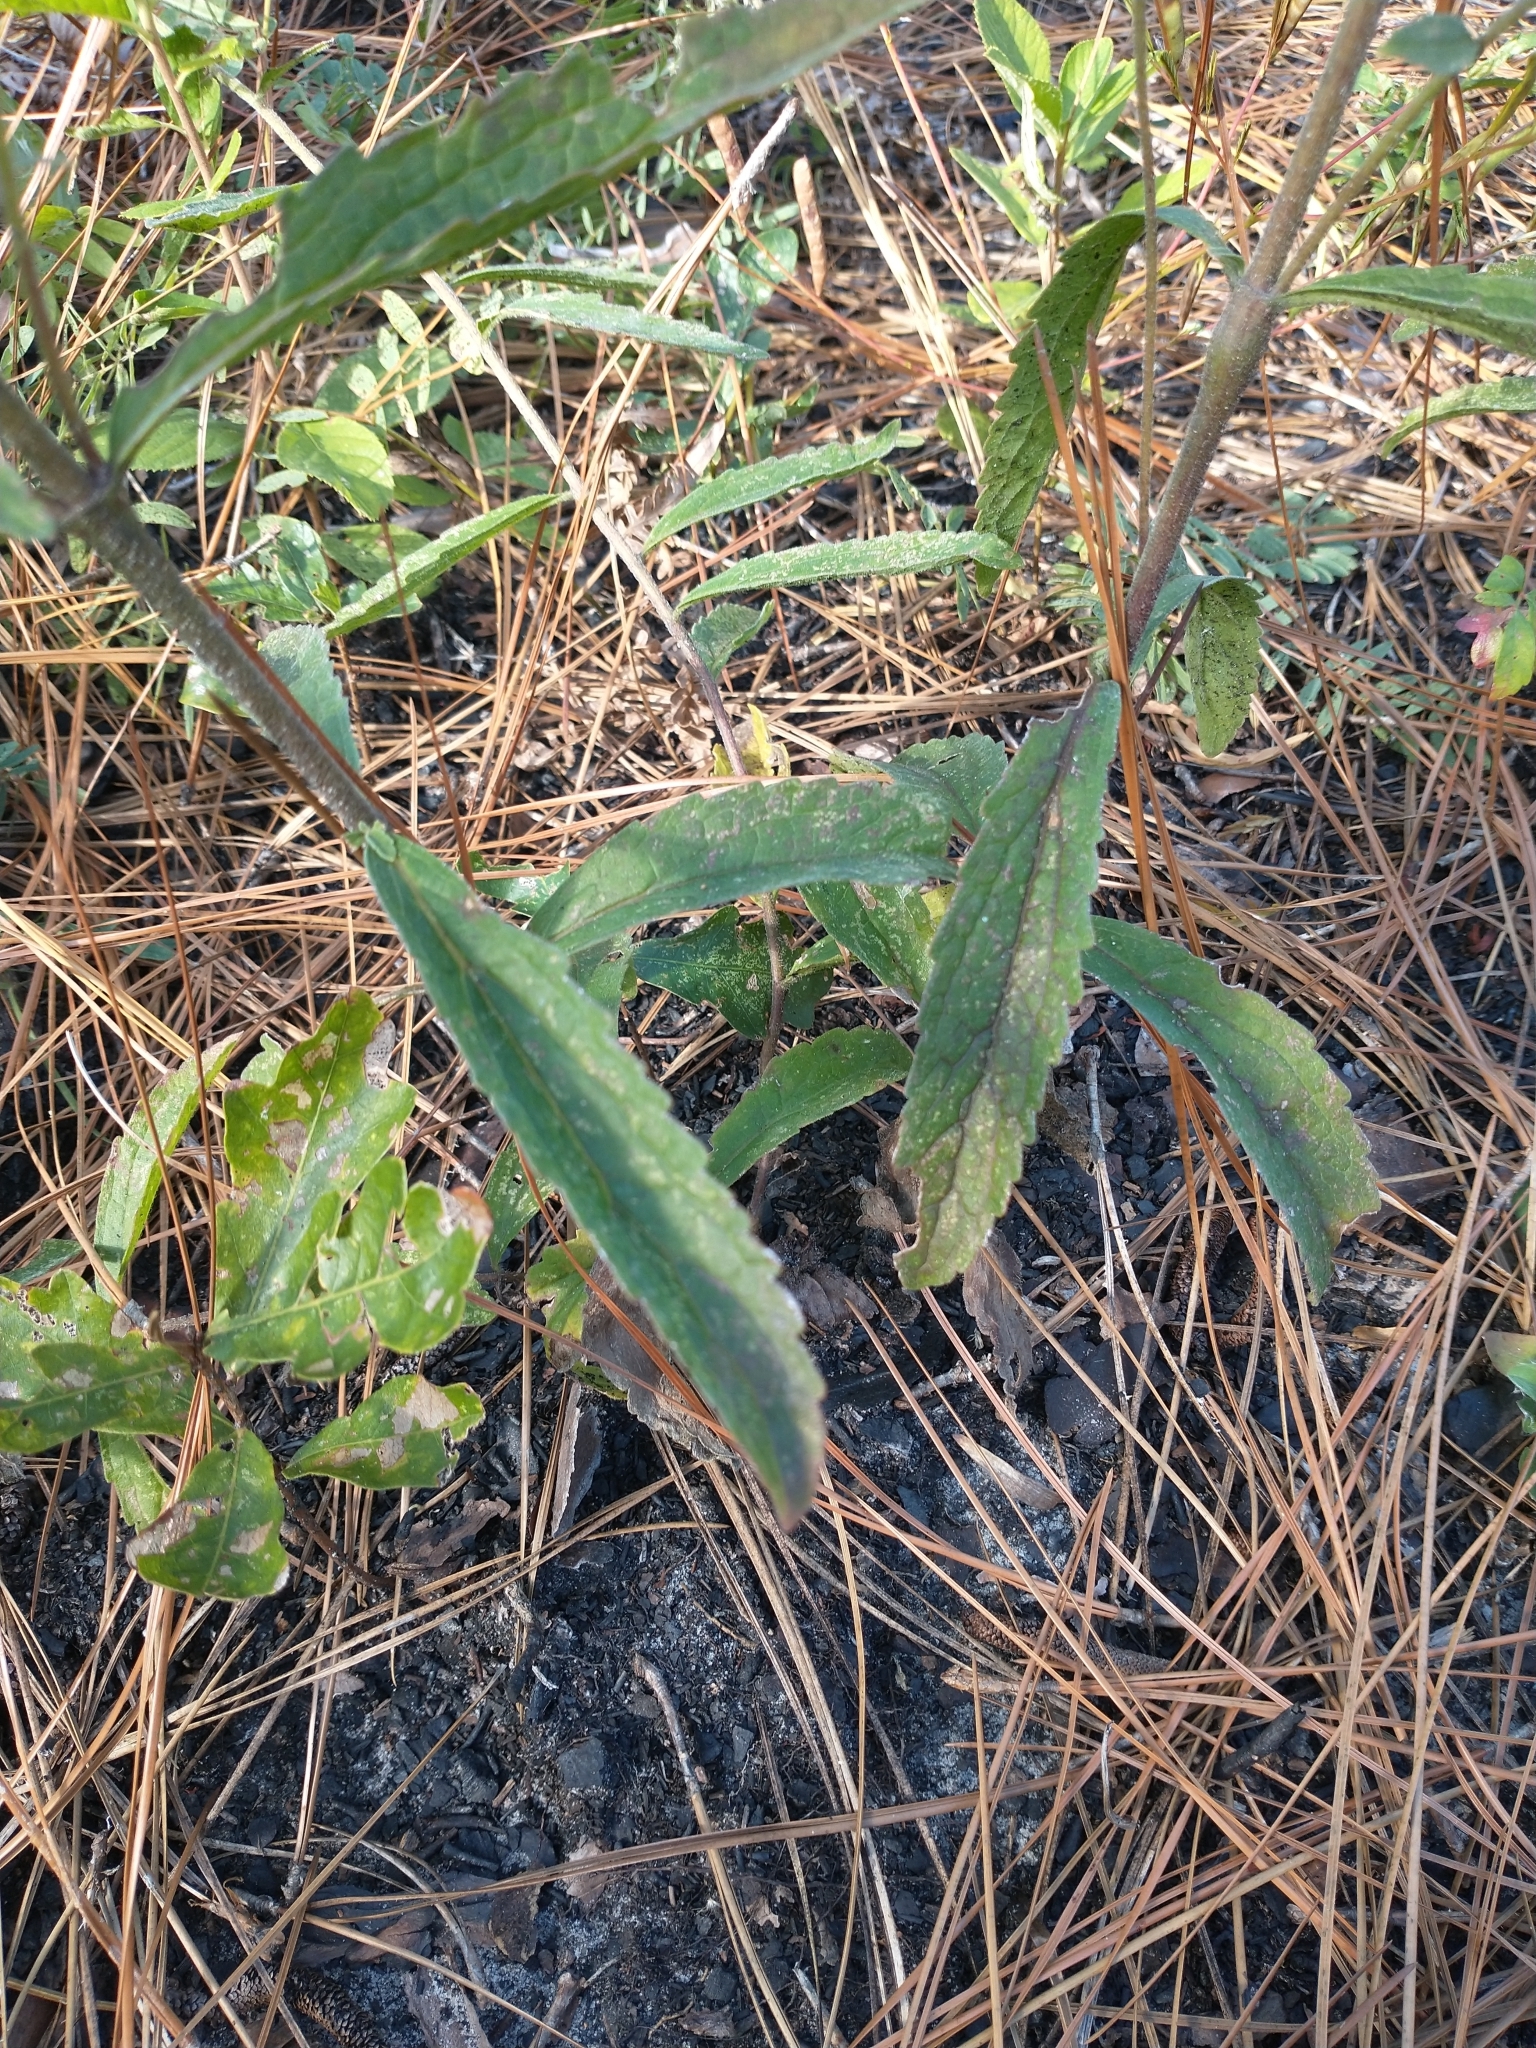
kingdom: Plantae
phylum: Tracheophyta
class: Magnoliopsida
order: Asterales
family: Asteraceae
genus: Eupatorium
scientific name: Eupatorium album
